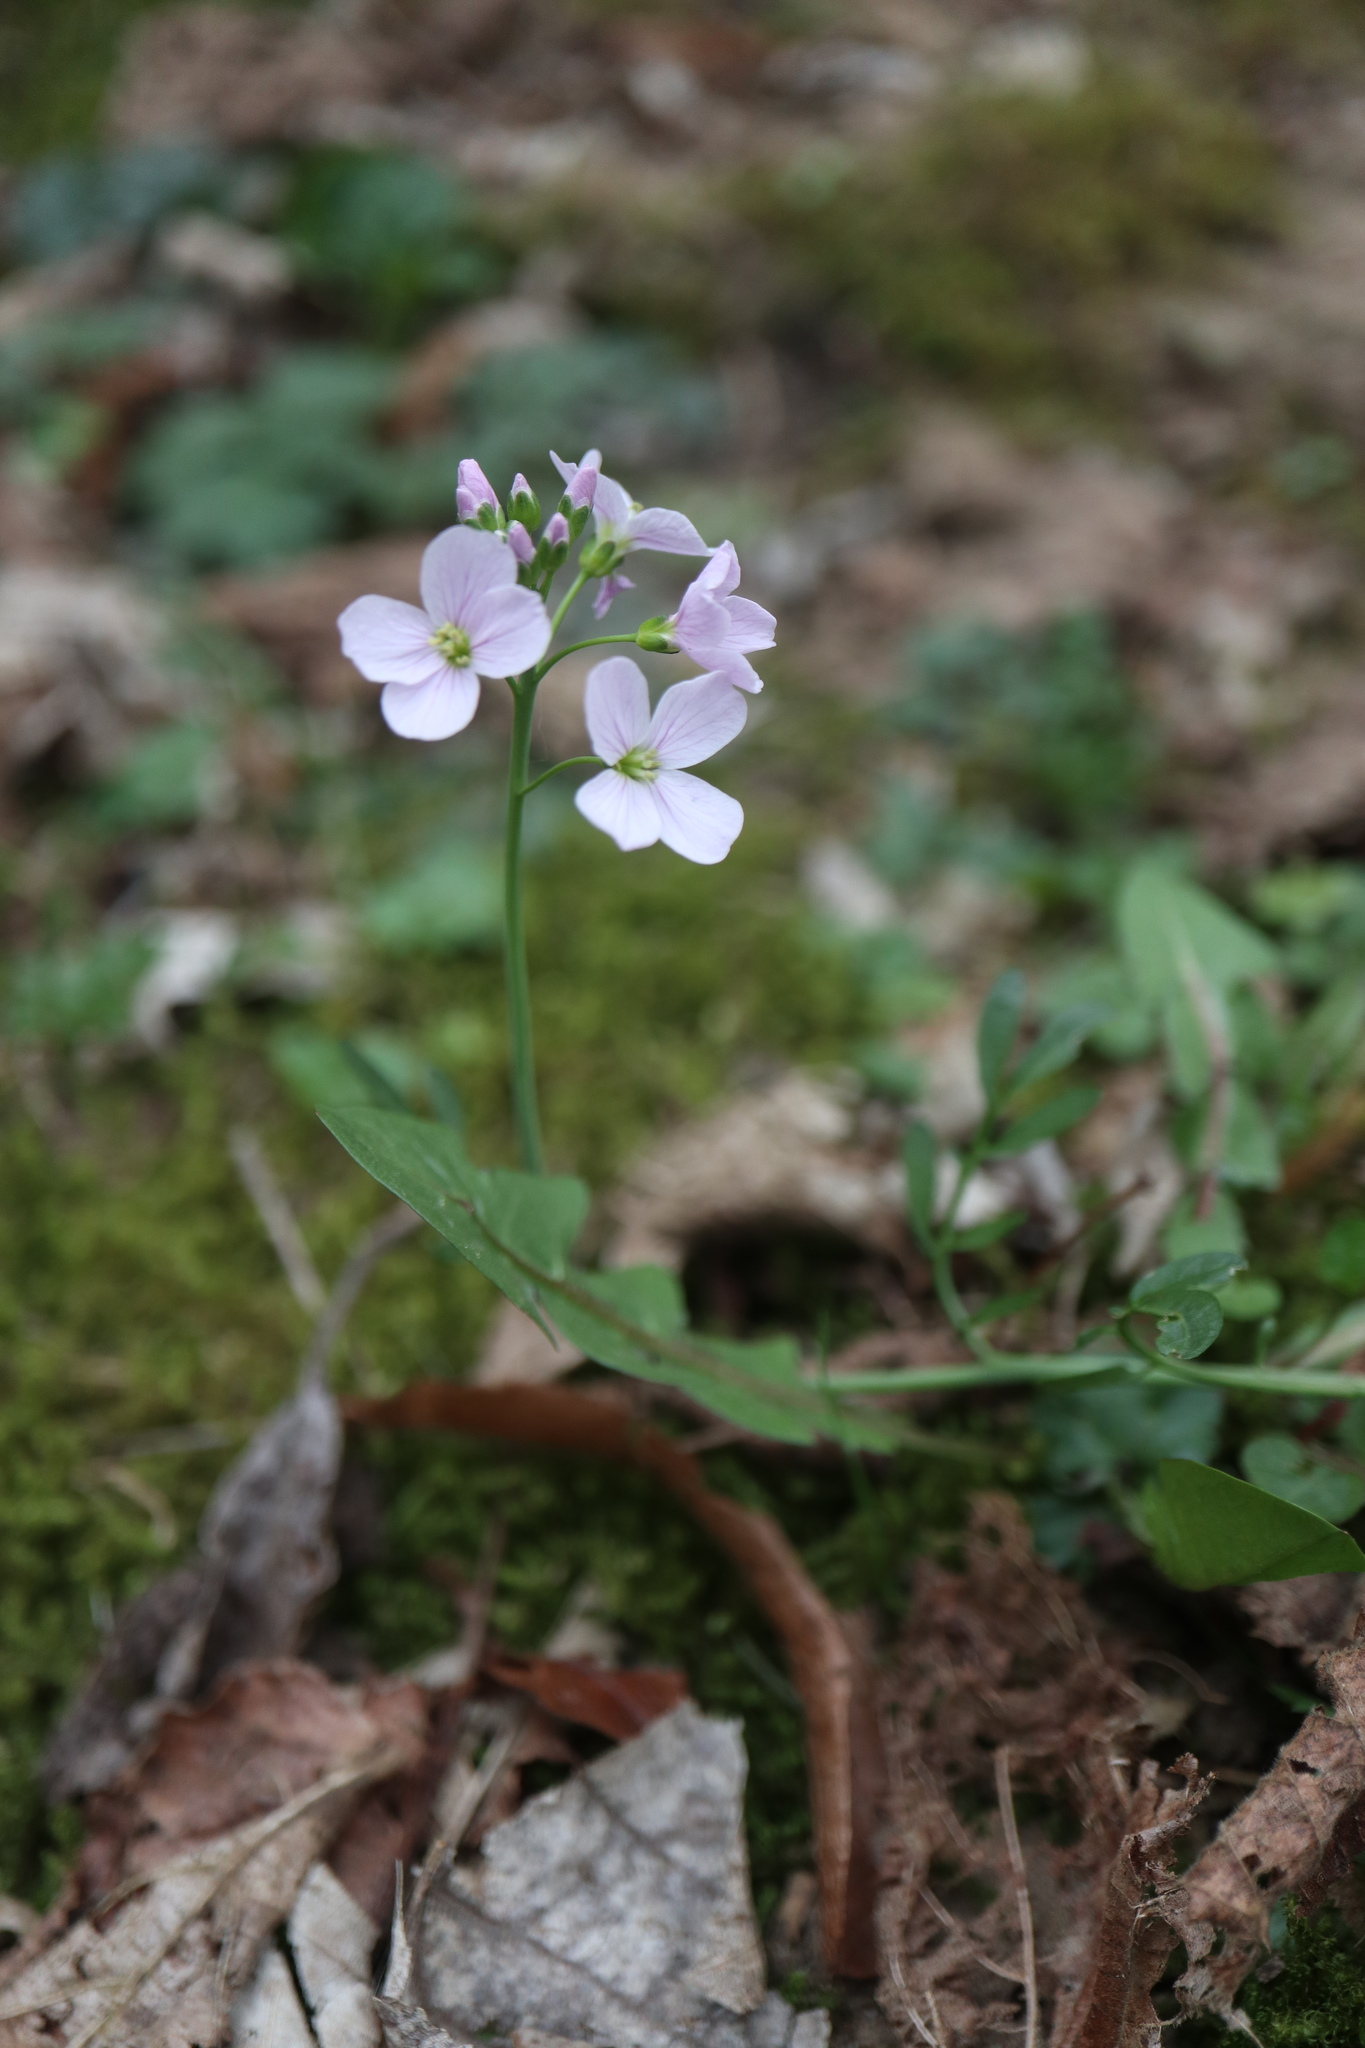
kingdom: Plantae
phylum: Tracheophyta
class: Magnoliopsida
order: Brassicales
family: Brassicaceae
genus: Cardamine
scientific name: Cardamine pratensis
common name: Cuckoo flower
